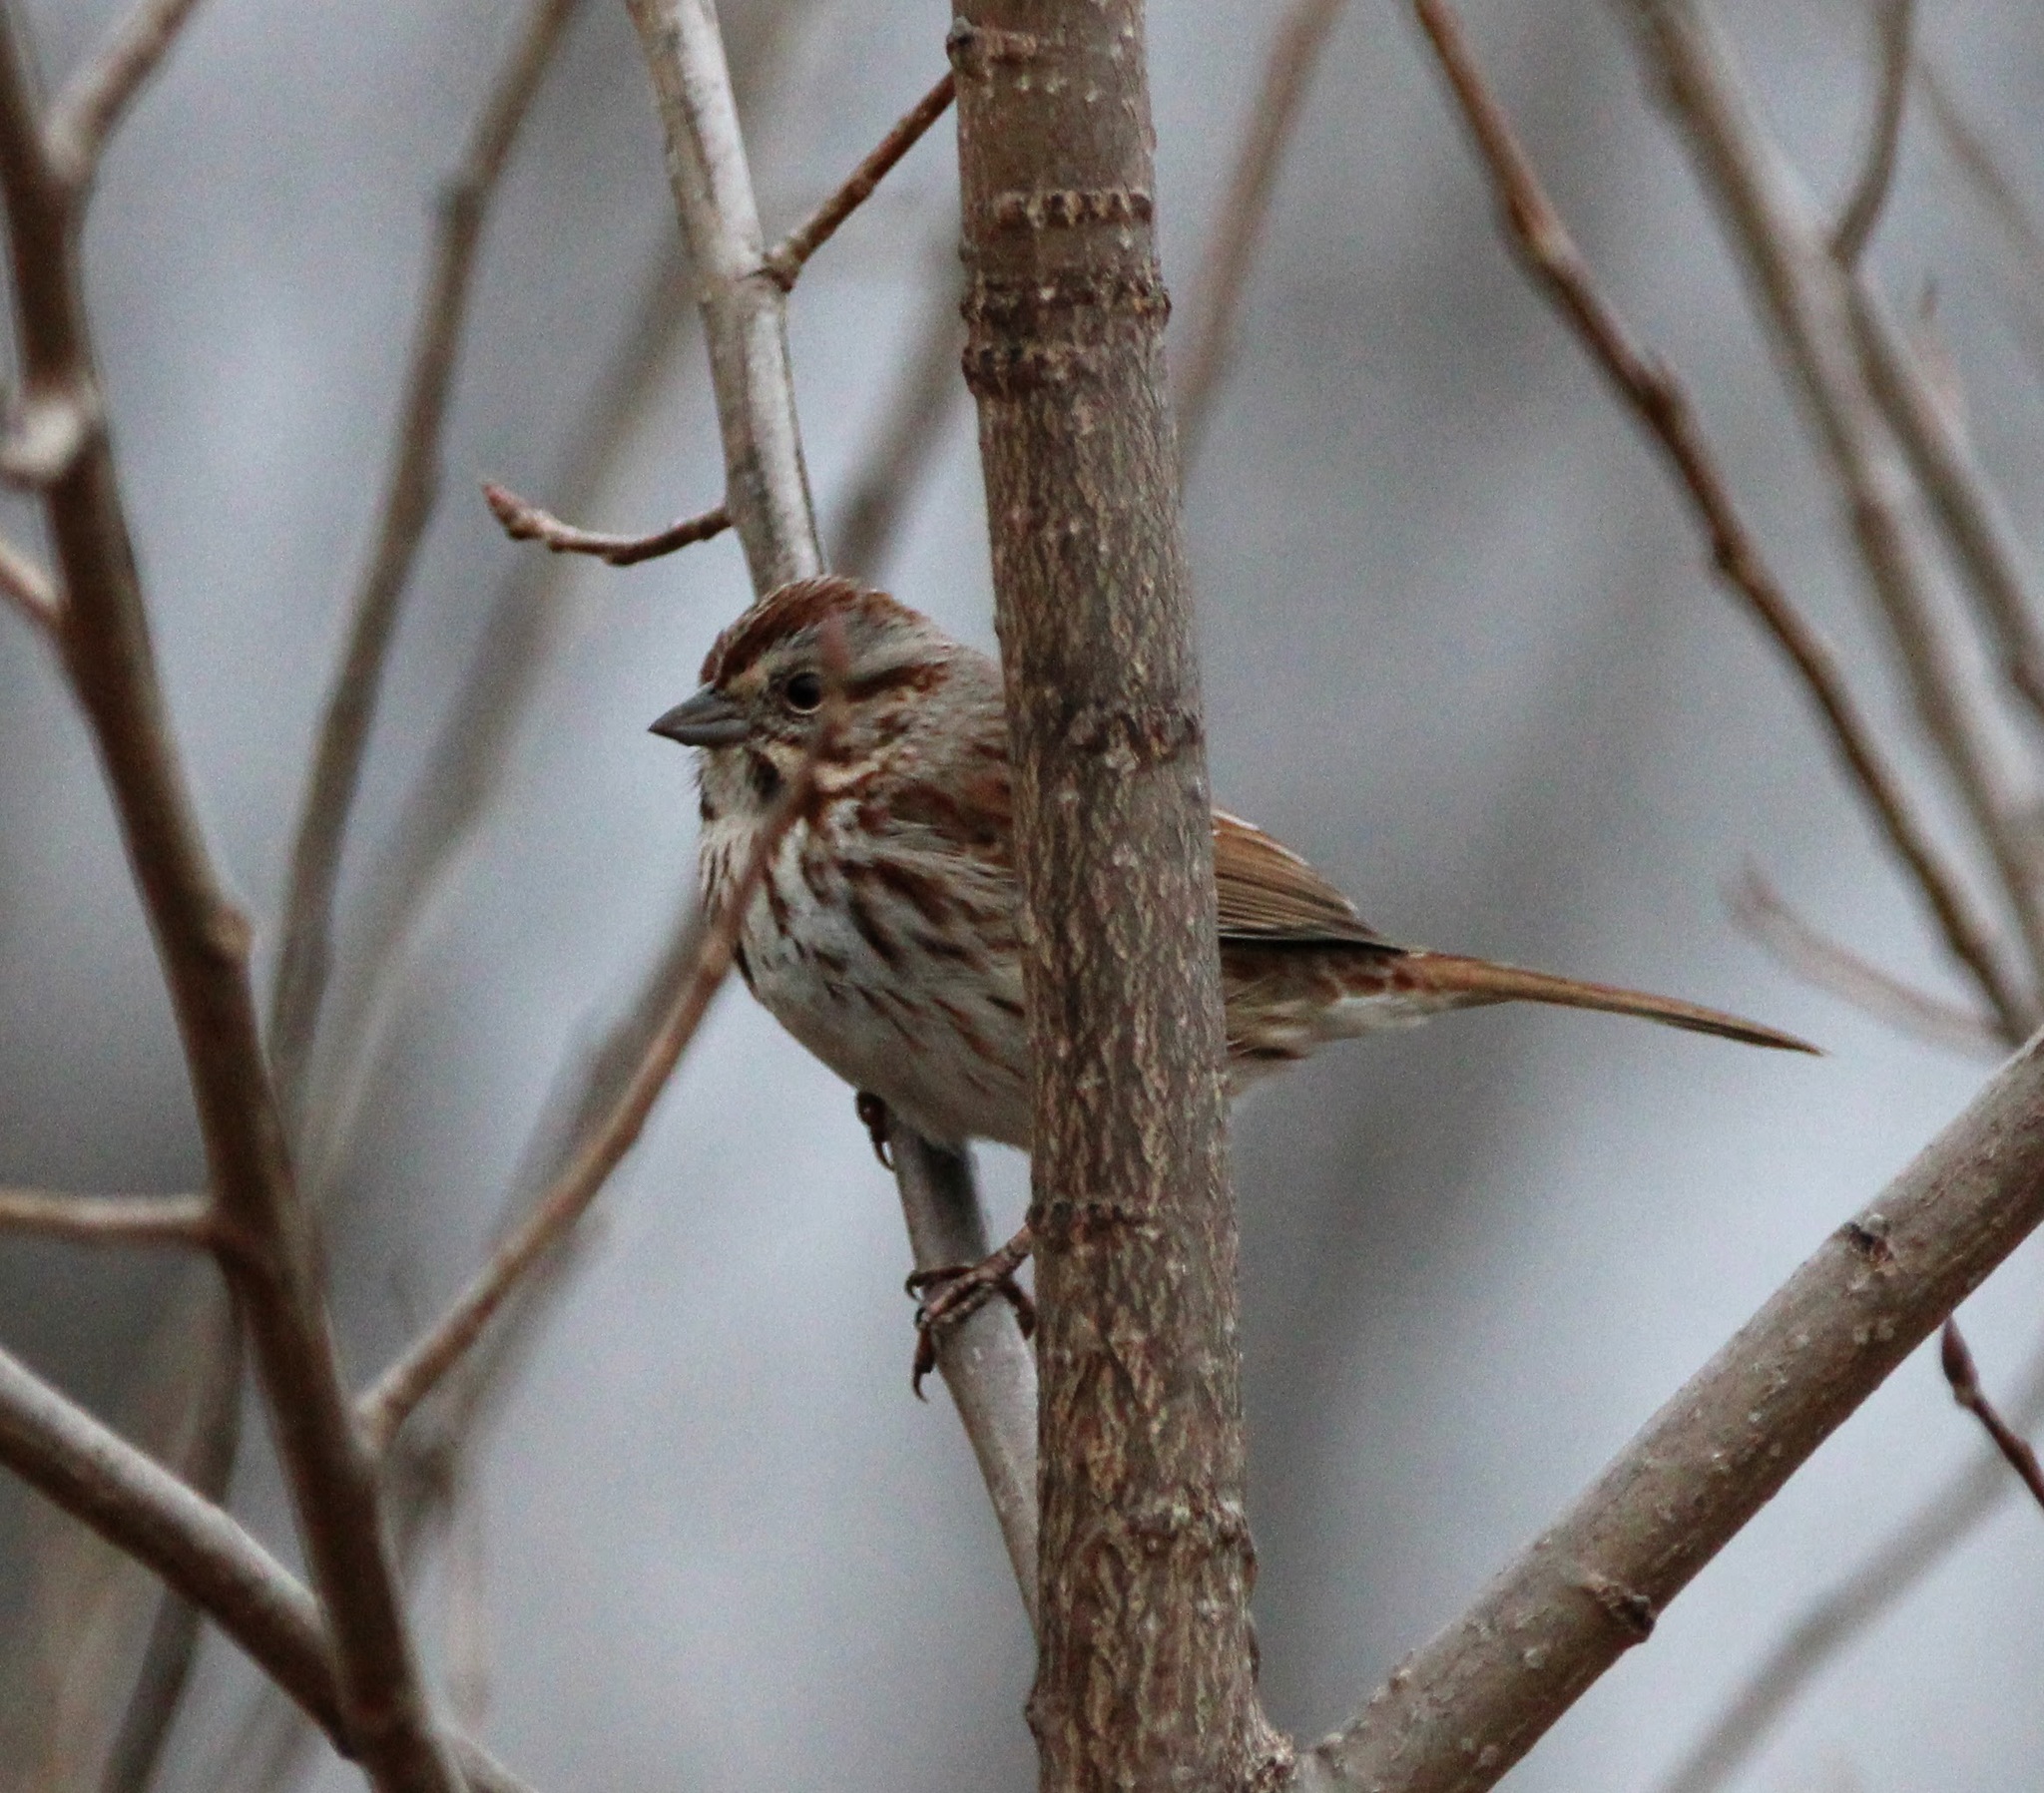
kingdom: Animalia
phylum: Chordata
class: Aves
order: Passeriformes
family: Passerellidae
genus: Melospiza
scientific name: Melospiza melodia
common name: Song sparrow
